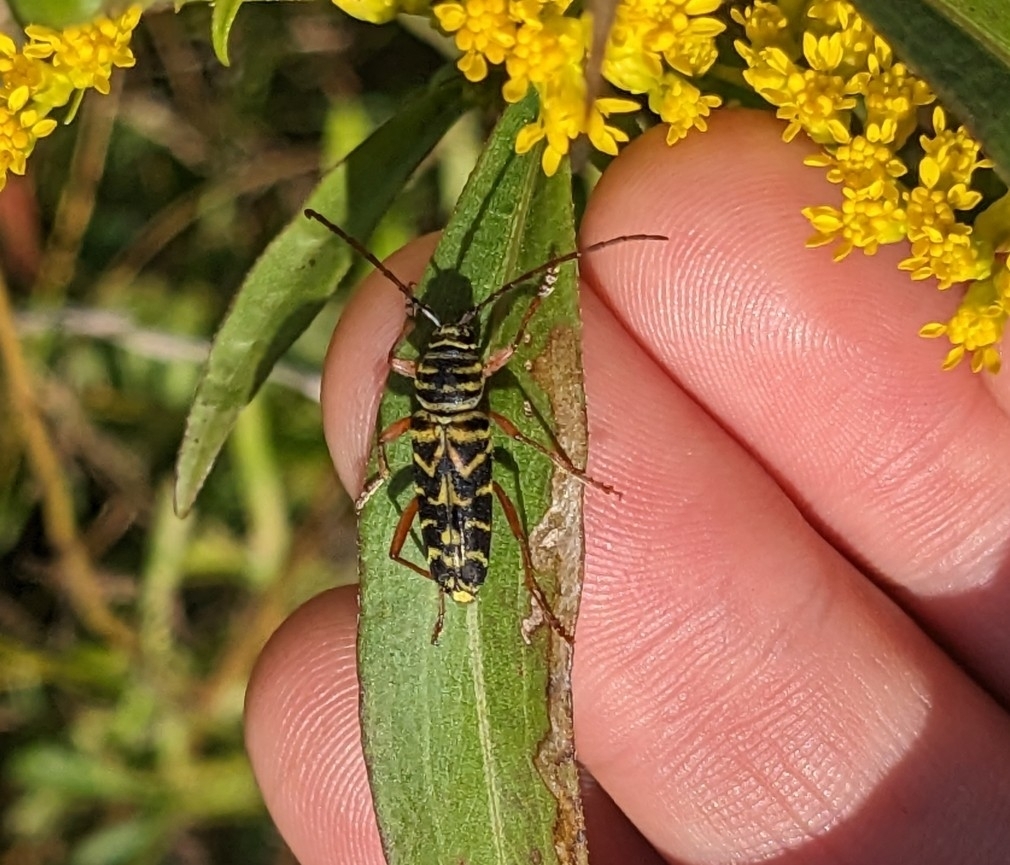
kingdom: Animalia
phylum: Arthropoda
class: Insecta
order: Coleoptera
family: Cerambycidae
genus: Megacyllene
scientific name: Megacyllene robiniae
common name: Locust borer
